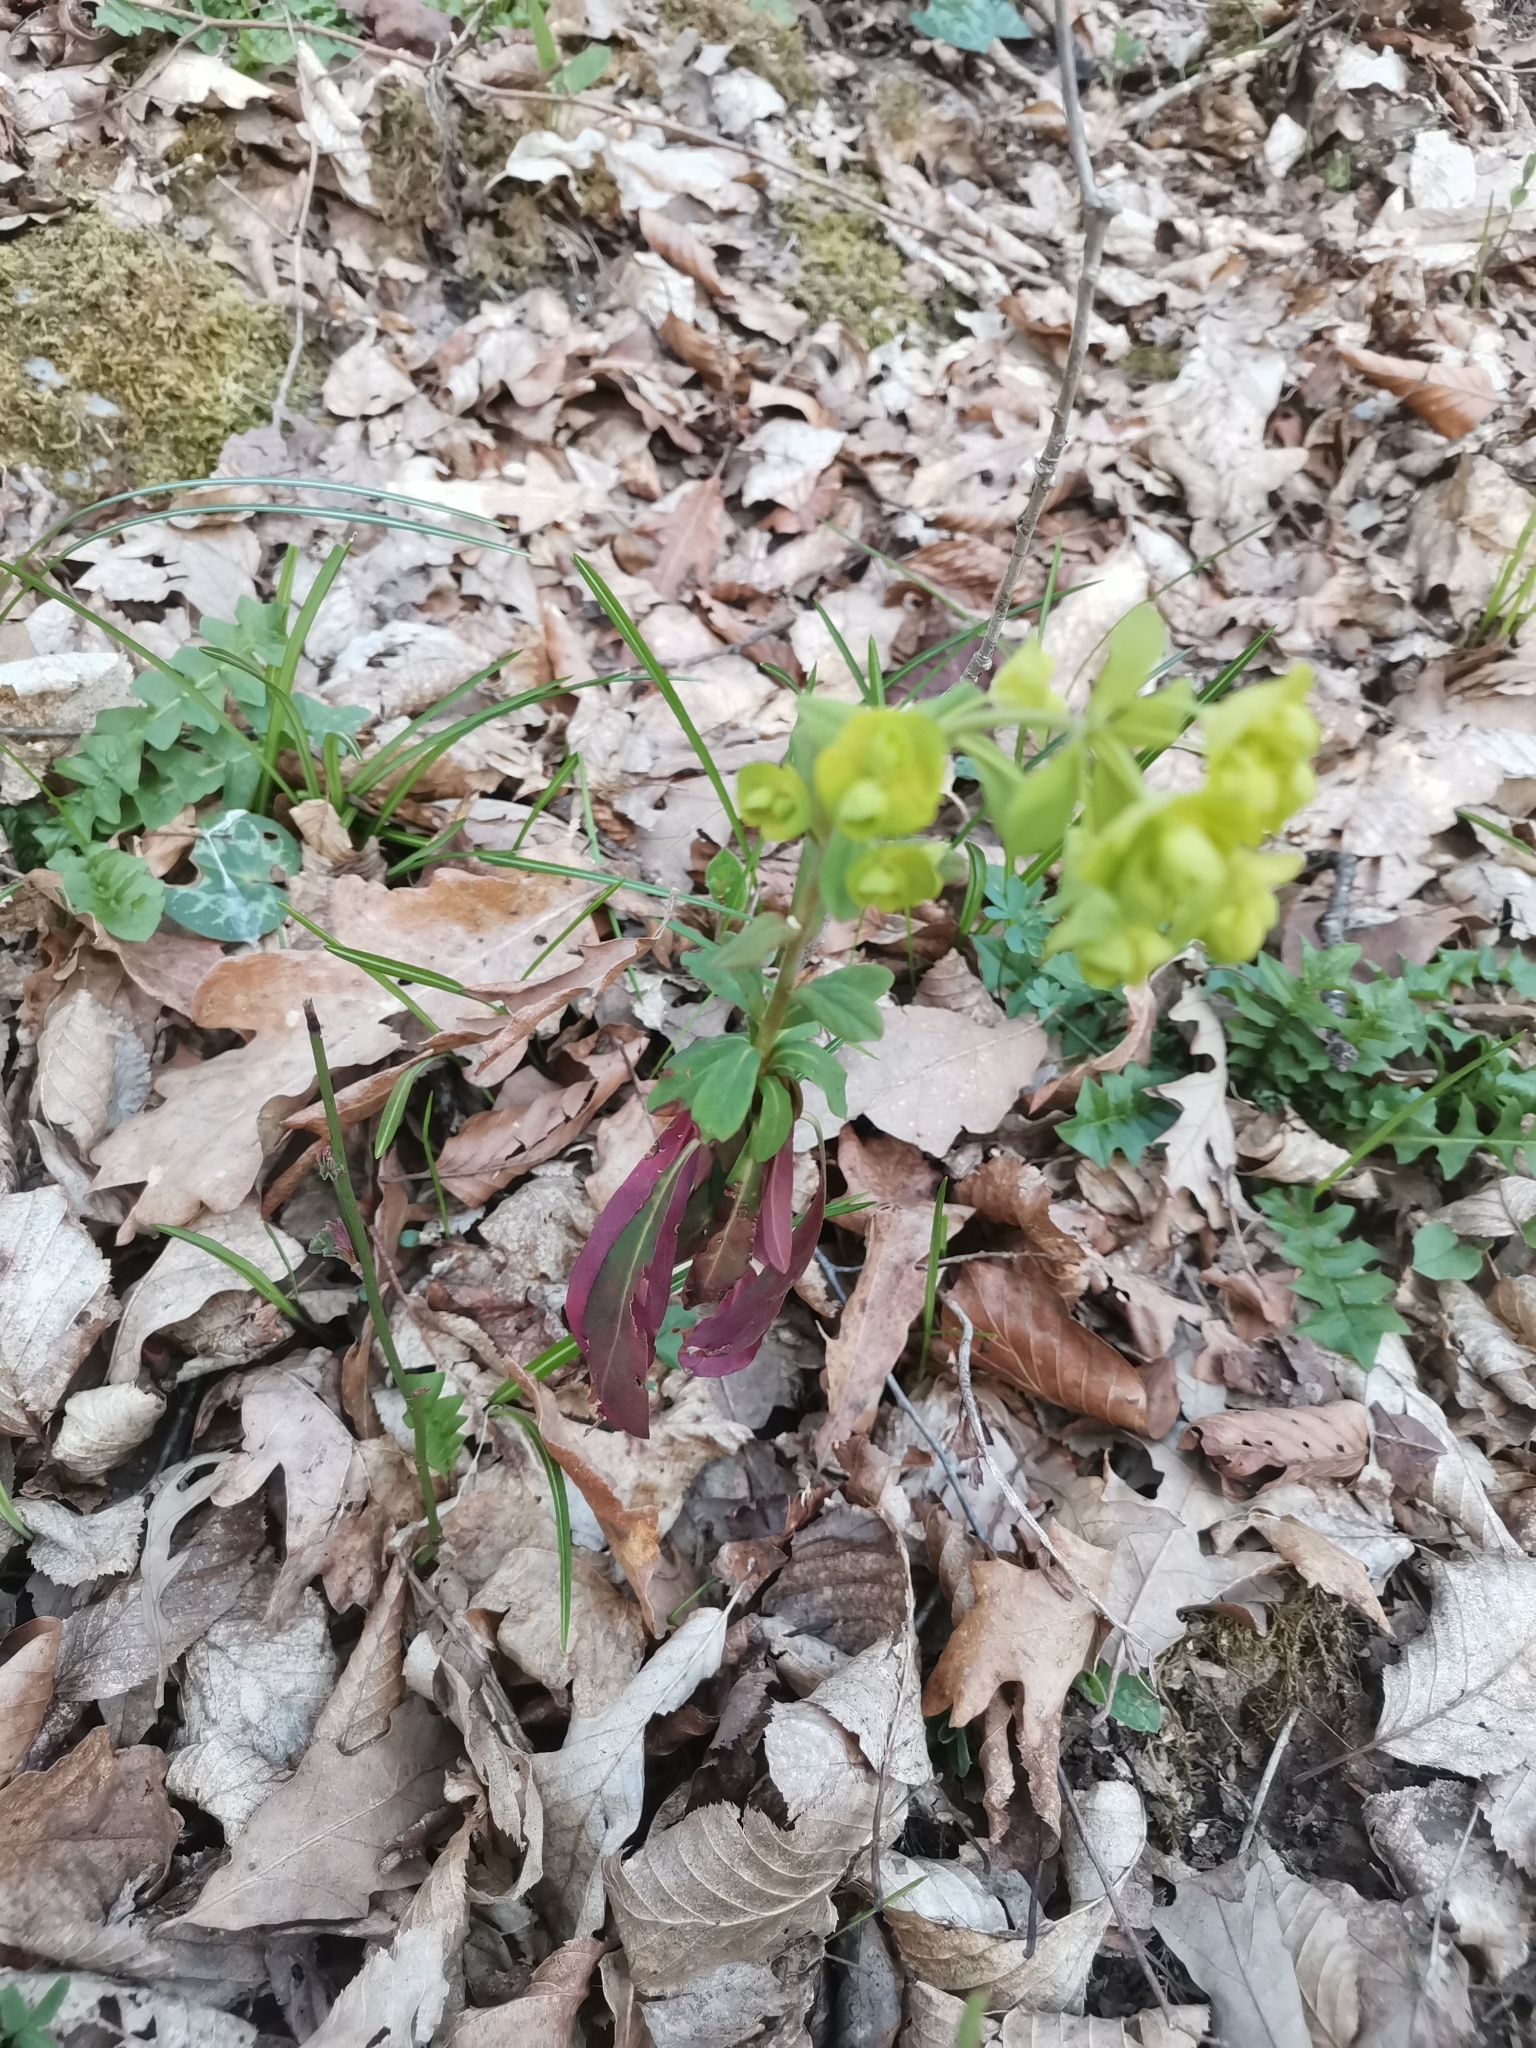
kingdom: Plantae
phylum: Tracheophyta
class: Magnoliopsida
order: Malpighiales
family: Euphorbiaceae
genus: Euphorbia
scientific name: Euphorbia amygdaloides
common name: Wood spurge
